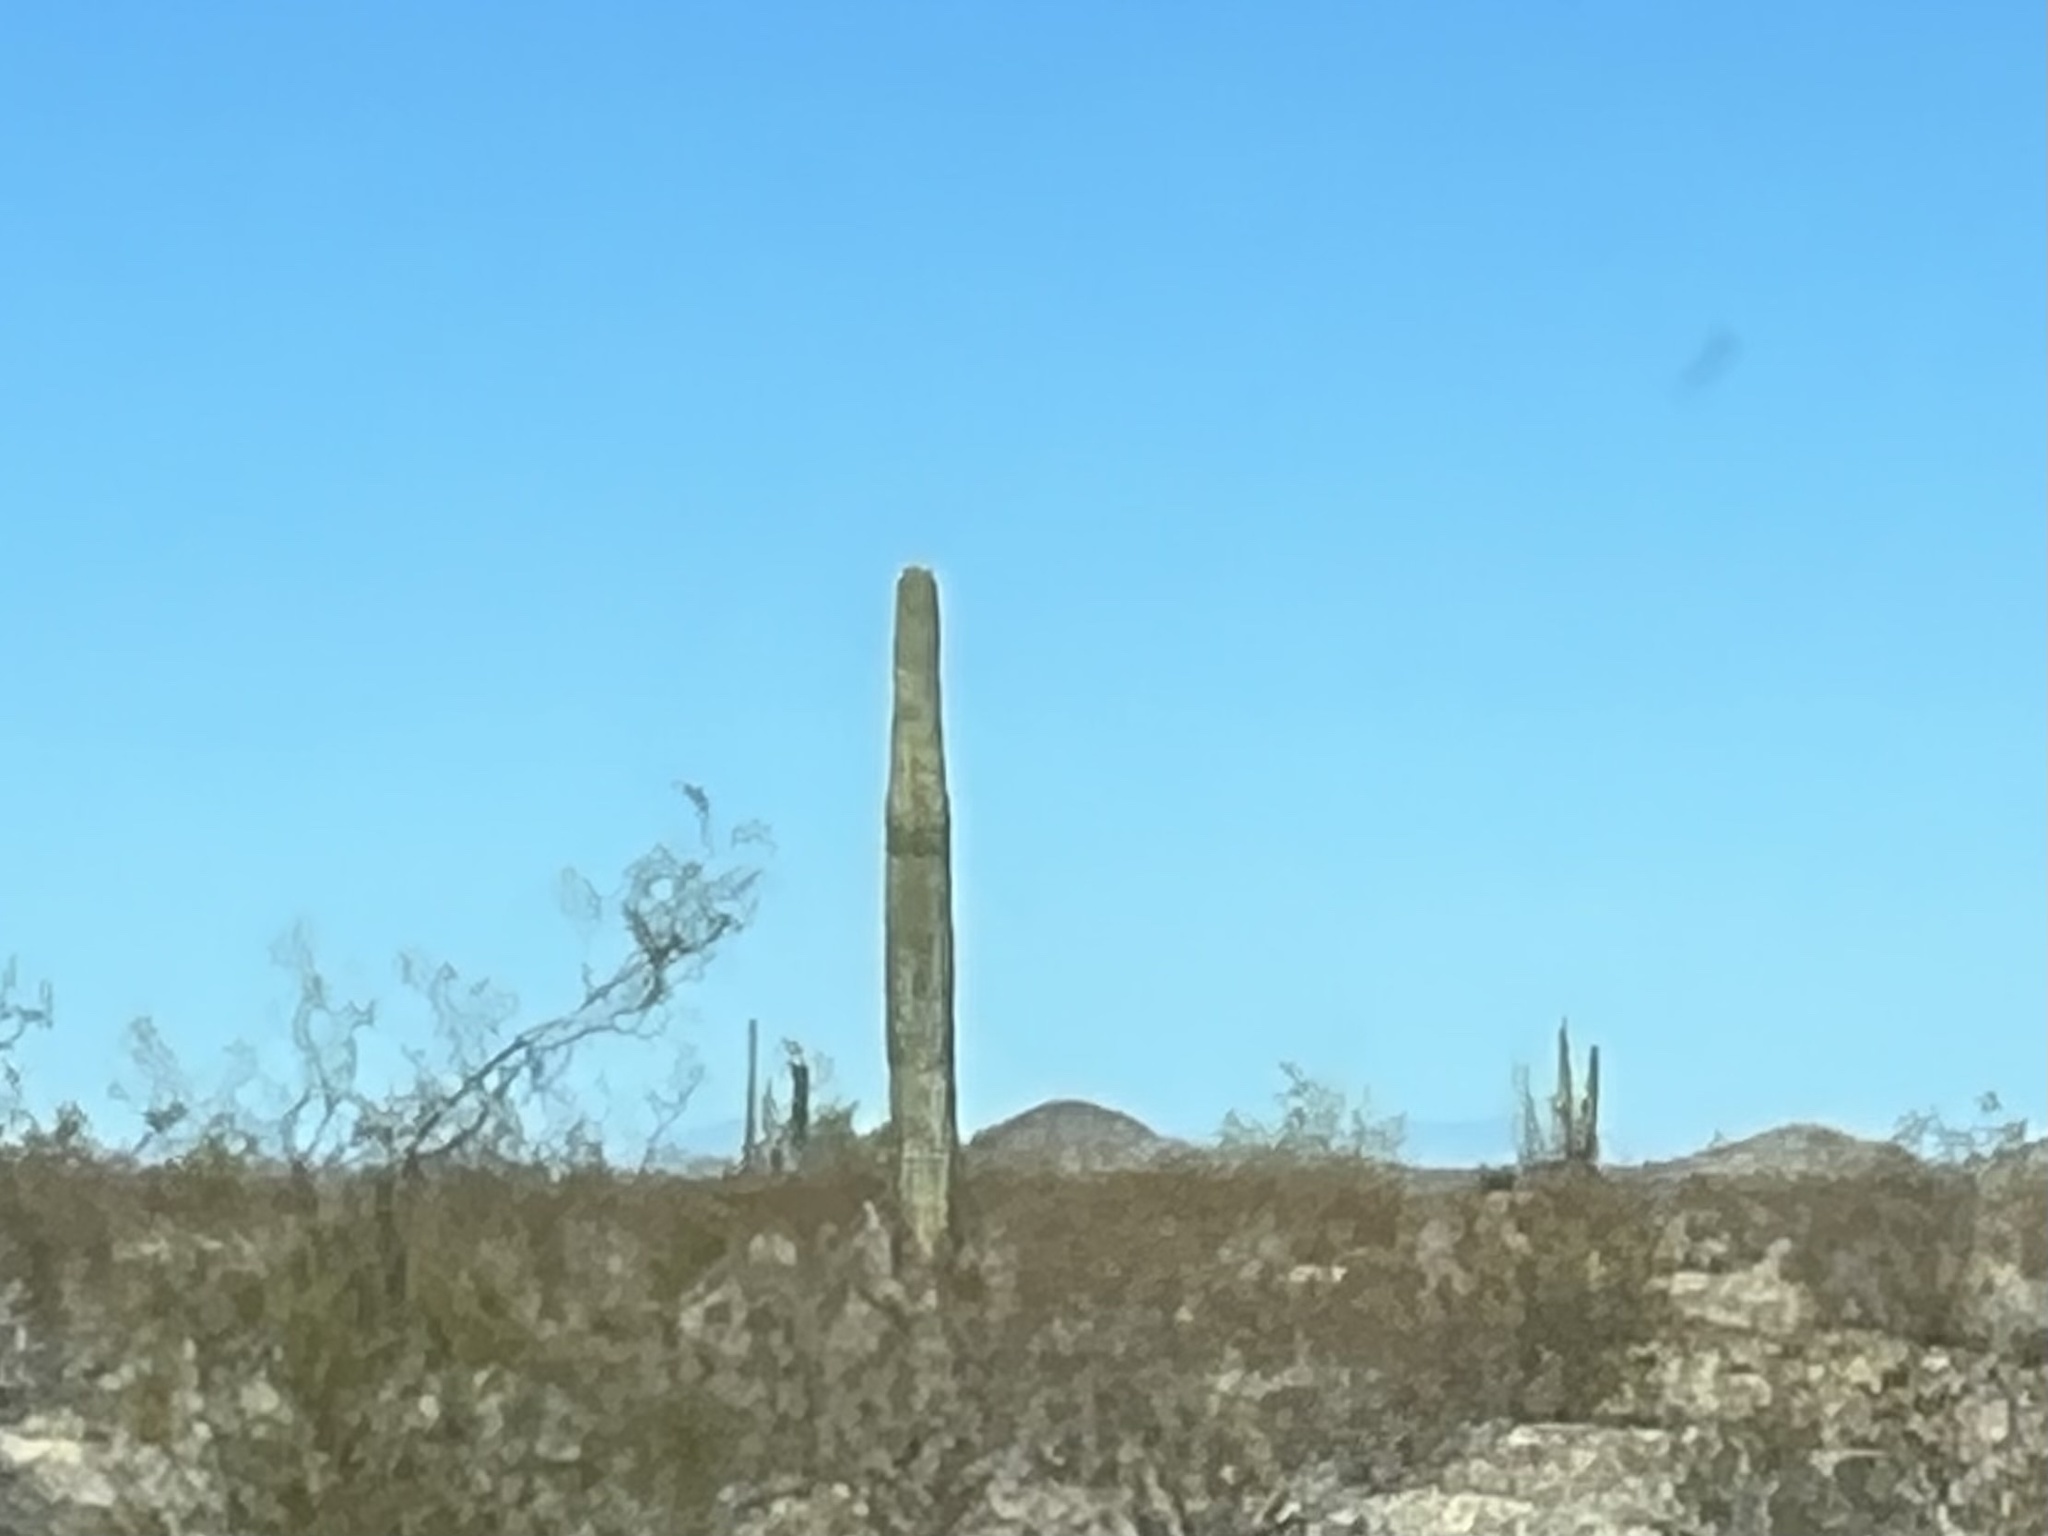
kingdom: Plantae
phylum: Tracheophyta
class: Magnoliopsida
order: Caryophyllales
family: Cactaceae
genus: Carnegiea
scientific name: Carnegiea gigantea
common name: Saguaro
